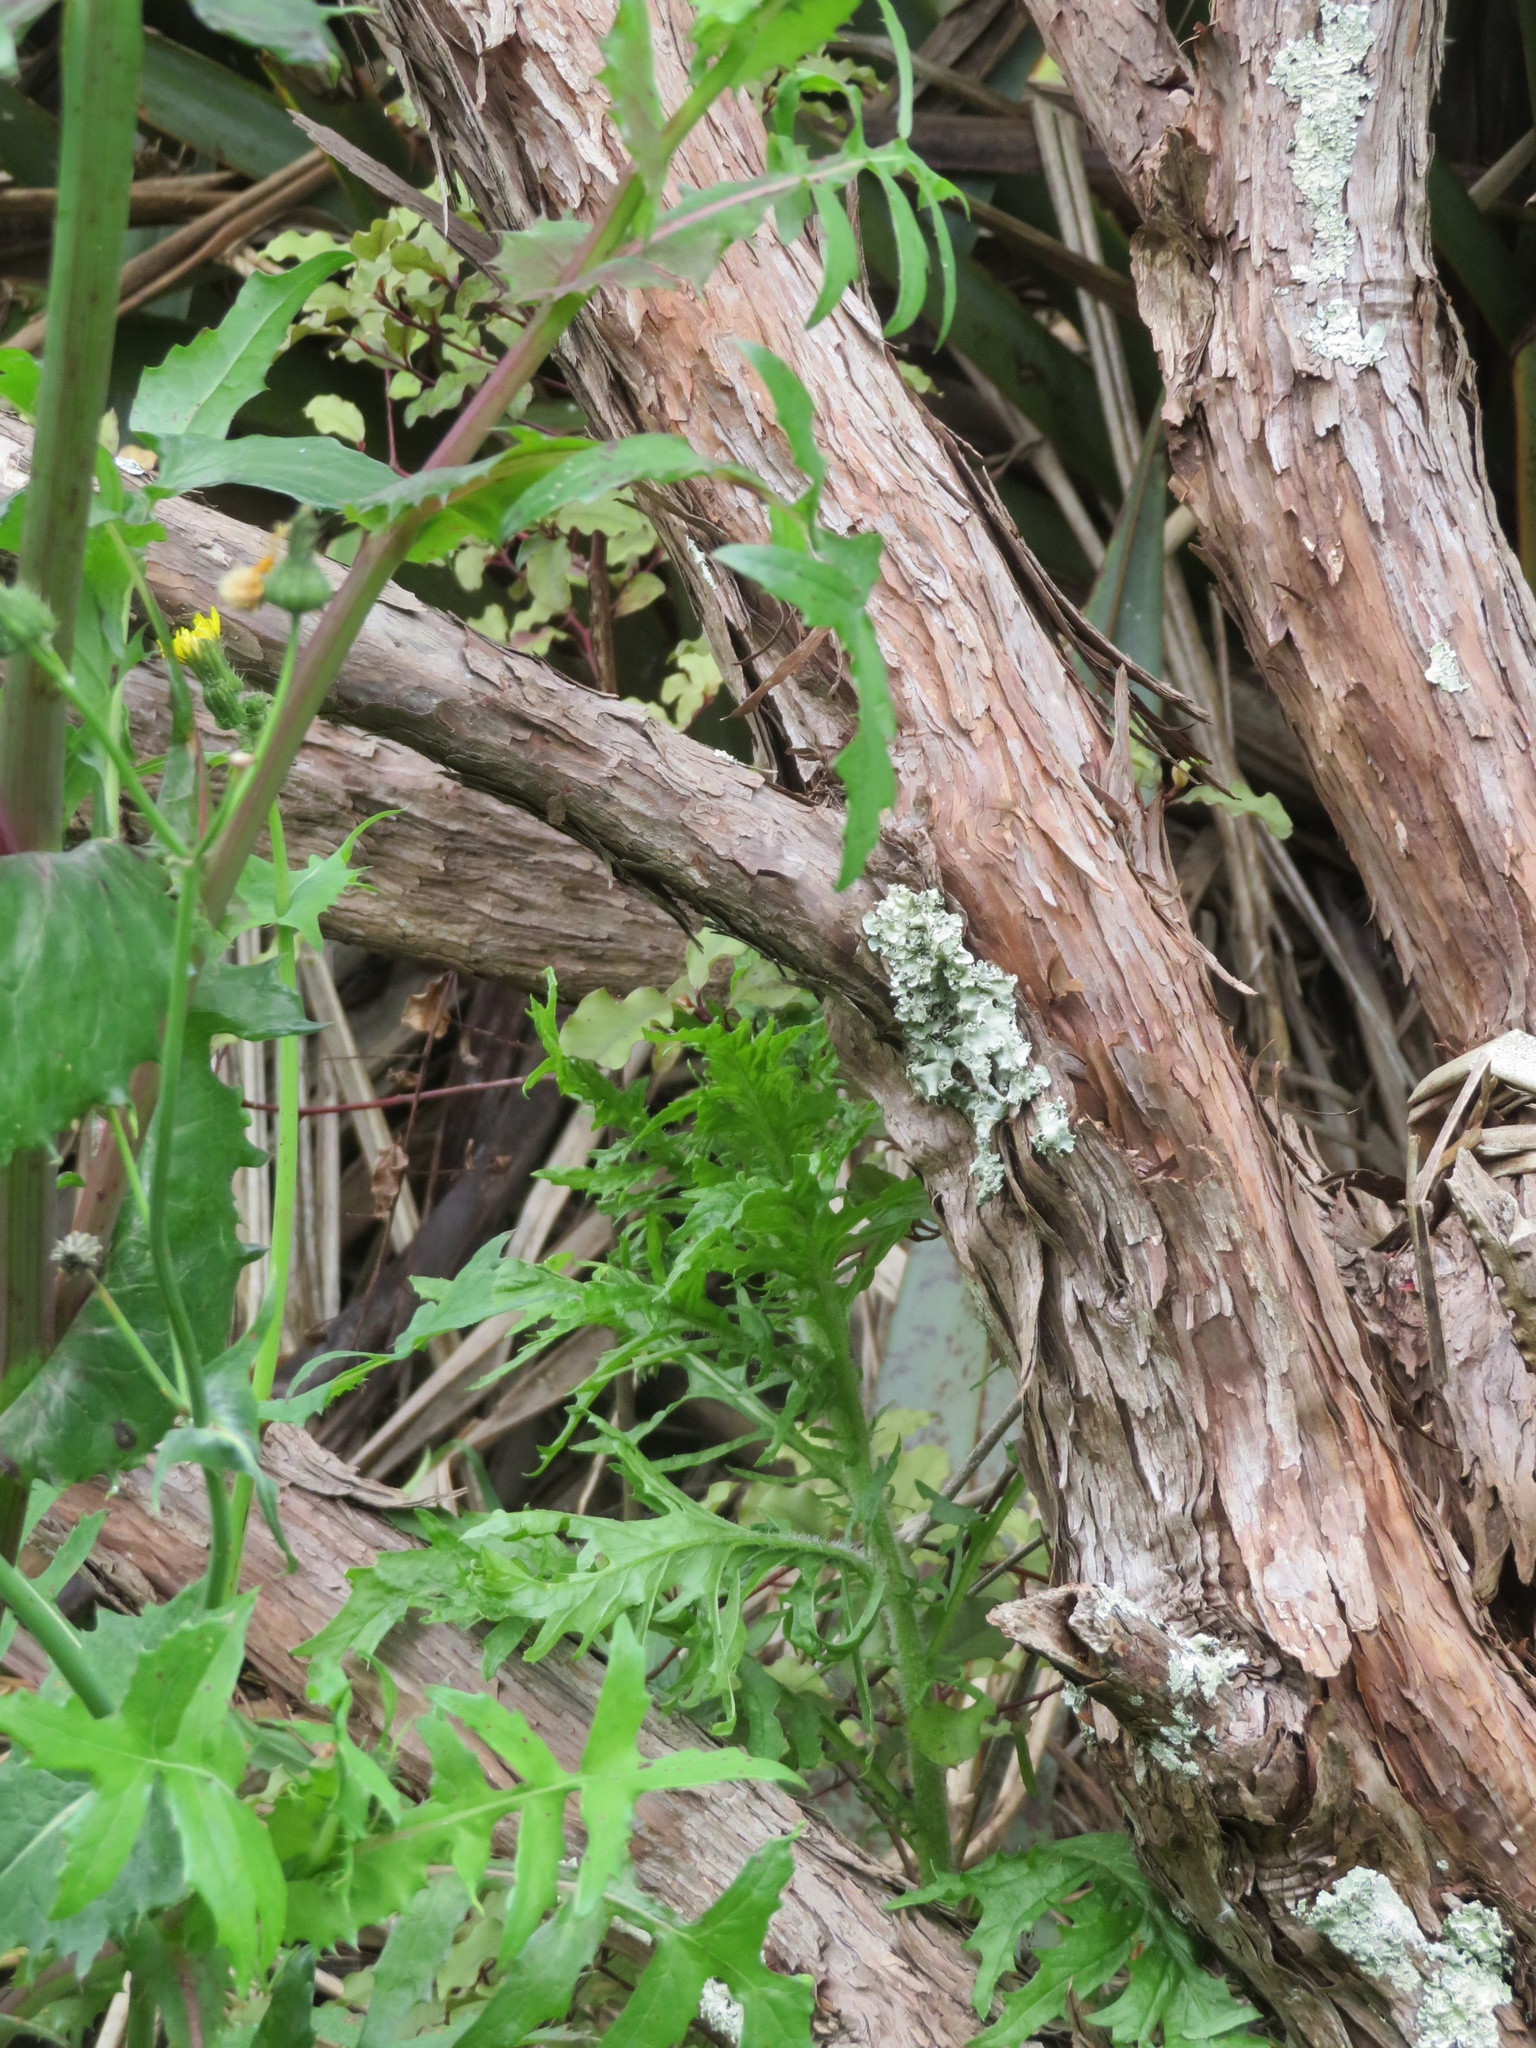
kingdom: Plantae
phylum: Tracheophyta
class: Magnoliopsida
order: Asterales
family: Asteraceae
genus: Senecio
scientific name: Senecio esleri
